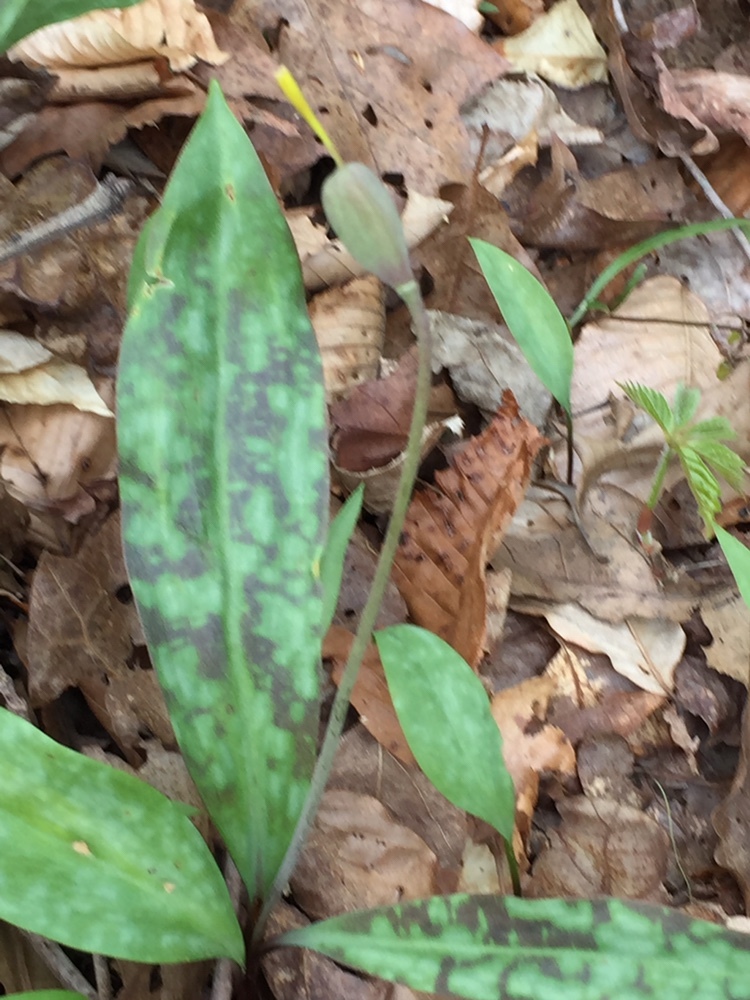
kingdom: Plantae
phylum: Tracheophyta
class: Liliopsida
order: Liliales
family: Liliaceae
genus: Erythronium
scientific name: Erythronium americanum
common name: Yellow adder's-tongue
